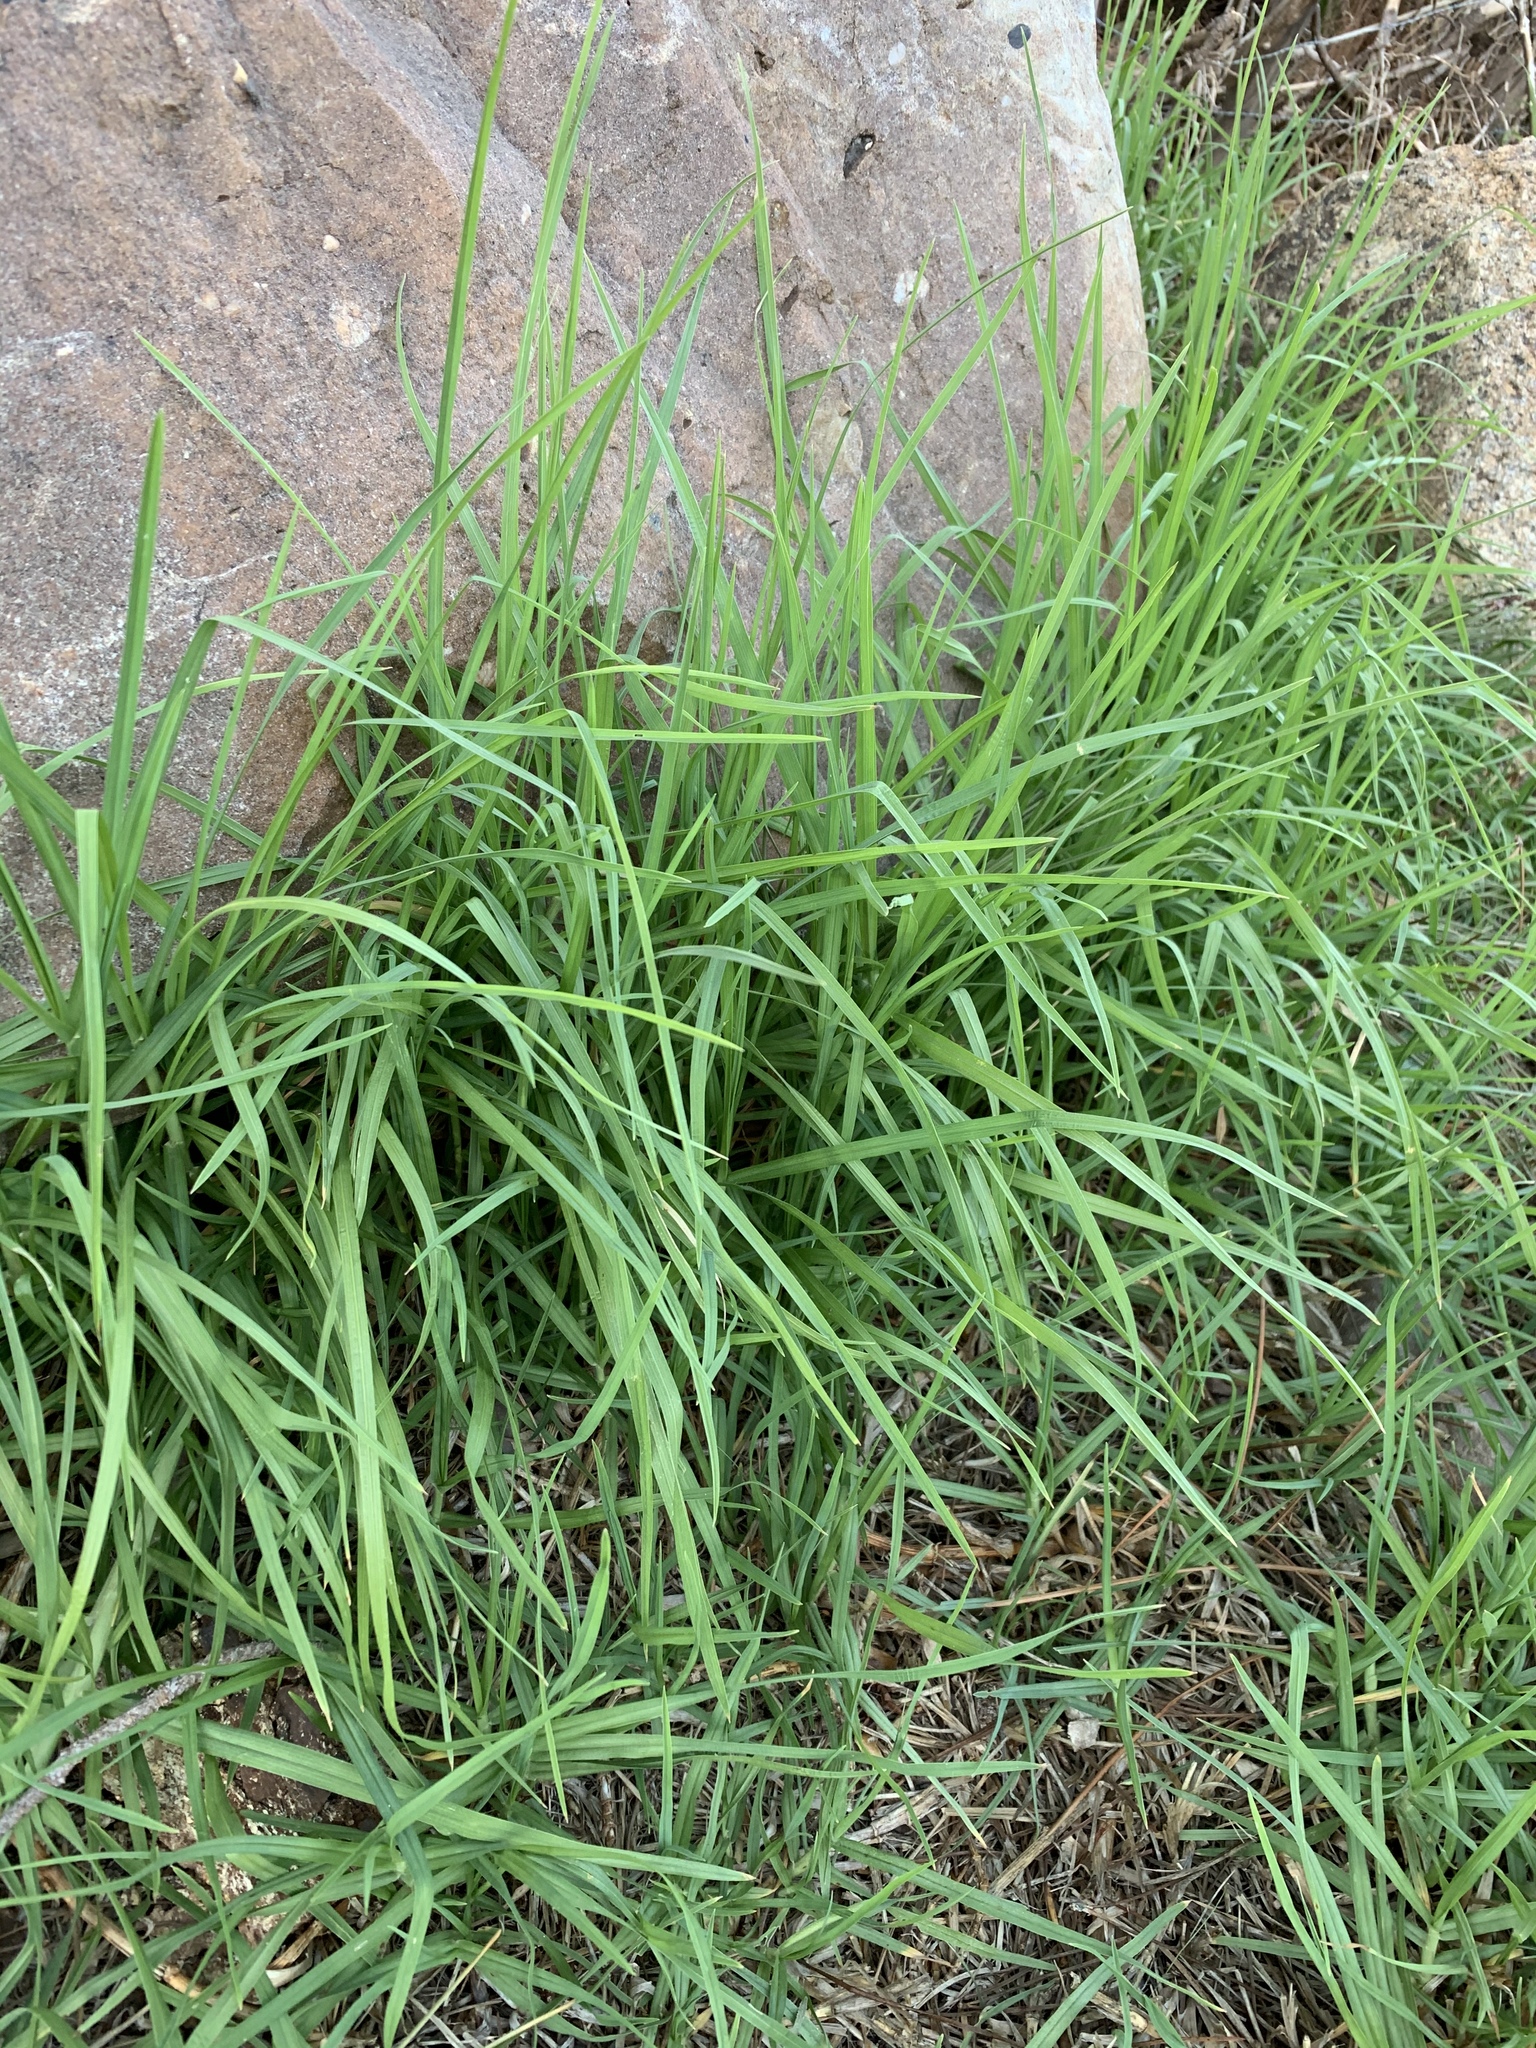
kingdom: Plantae
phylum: Tracheophyta
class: Liliopsida
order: Poales
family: Poaceae
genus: Cenchrus
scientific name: Cenchrus clandestinus
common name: Kikuyugrass
